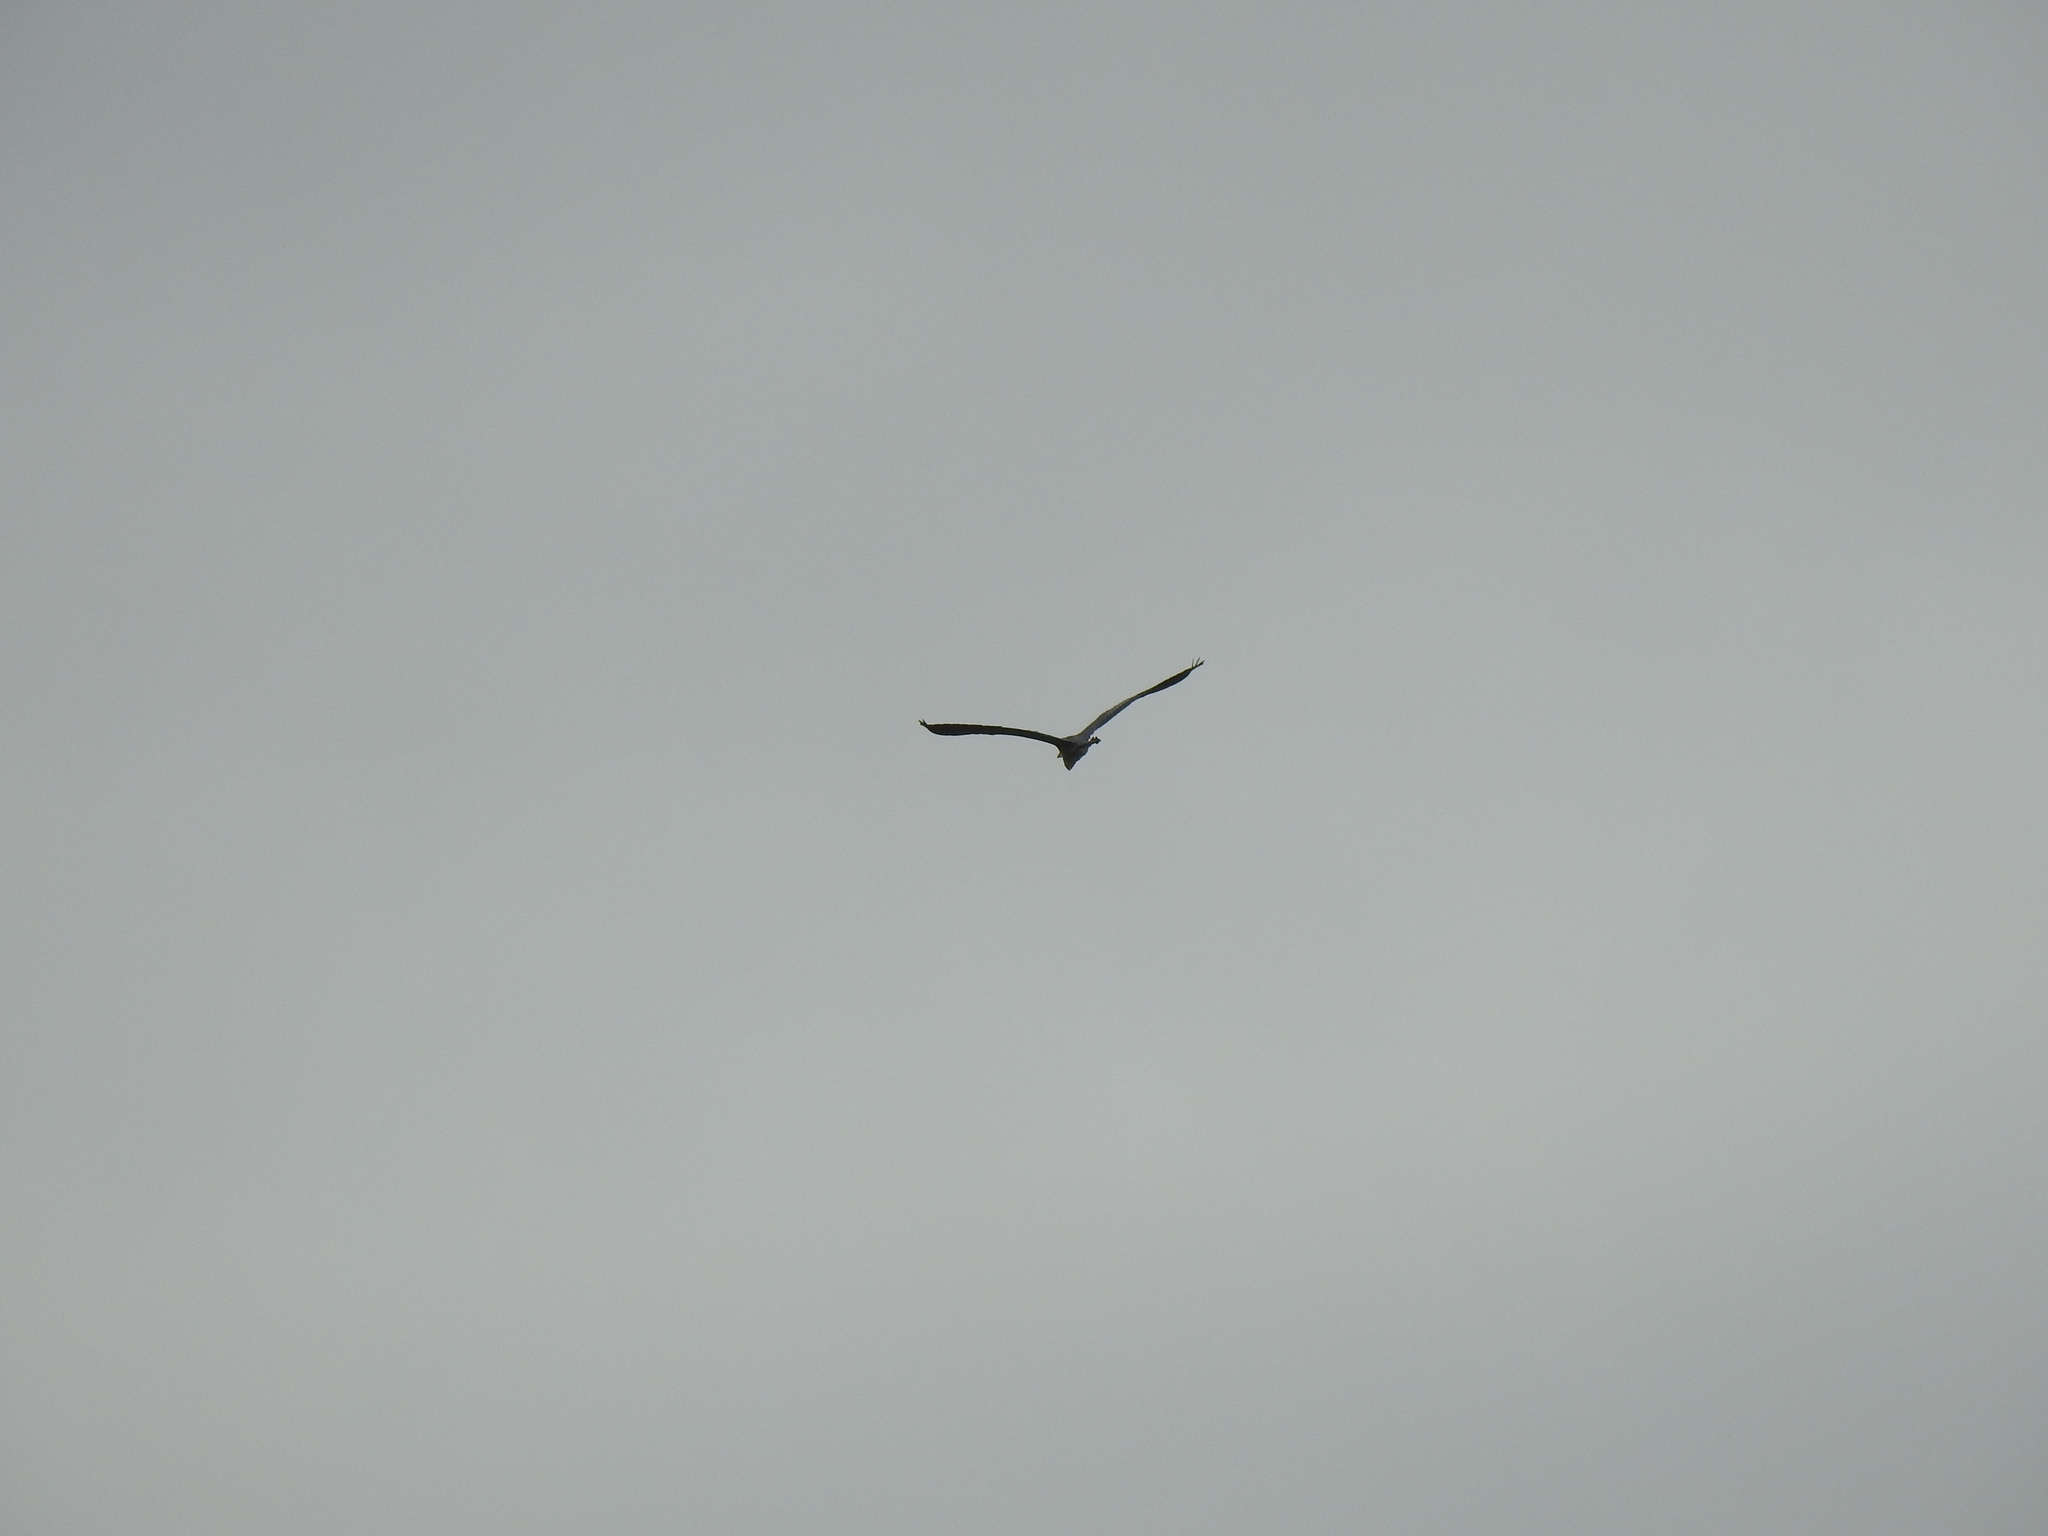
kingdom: Animalia
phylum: Chordata
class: Aves
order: Pelecaniformes
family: Ardeidae
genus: Ardea
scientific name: Ardea herodias
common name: Great blue heron
